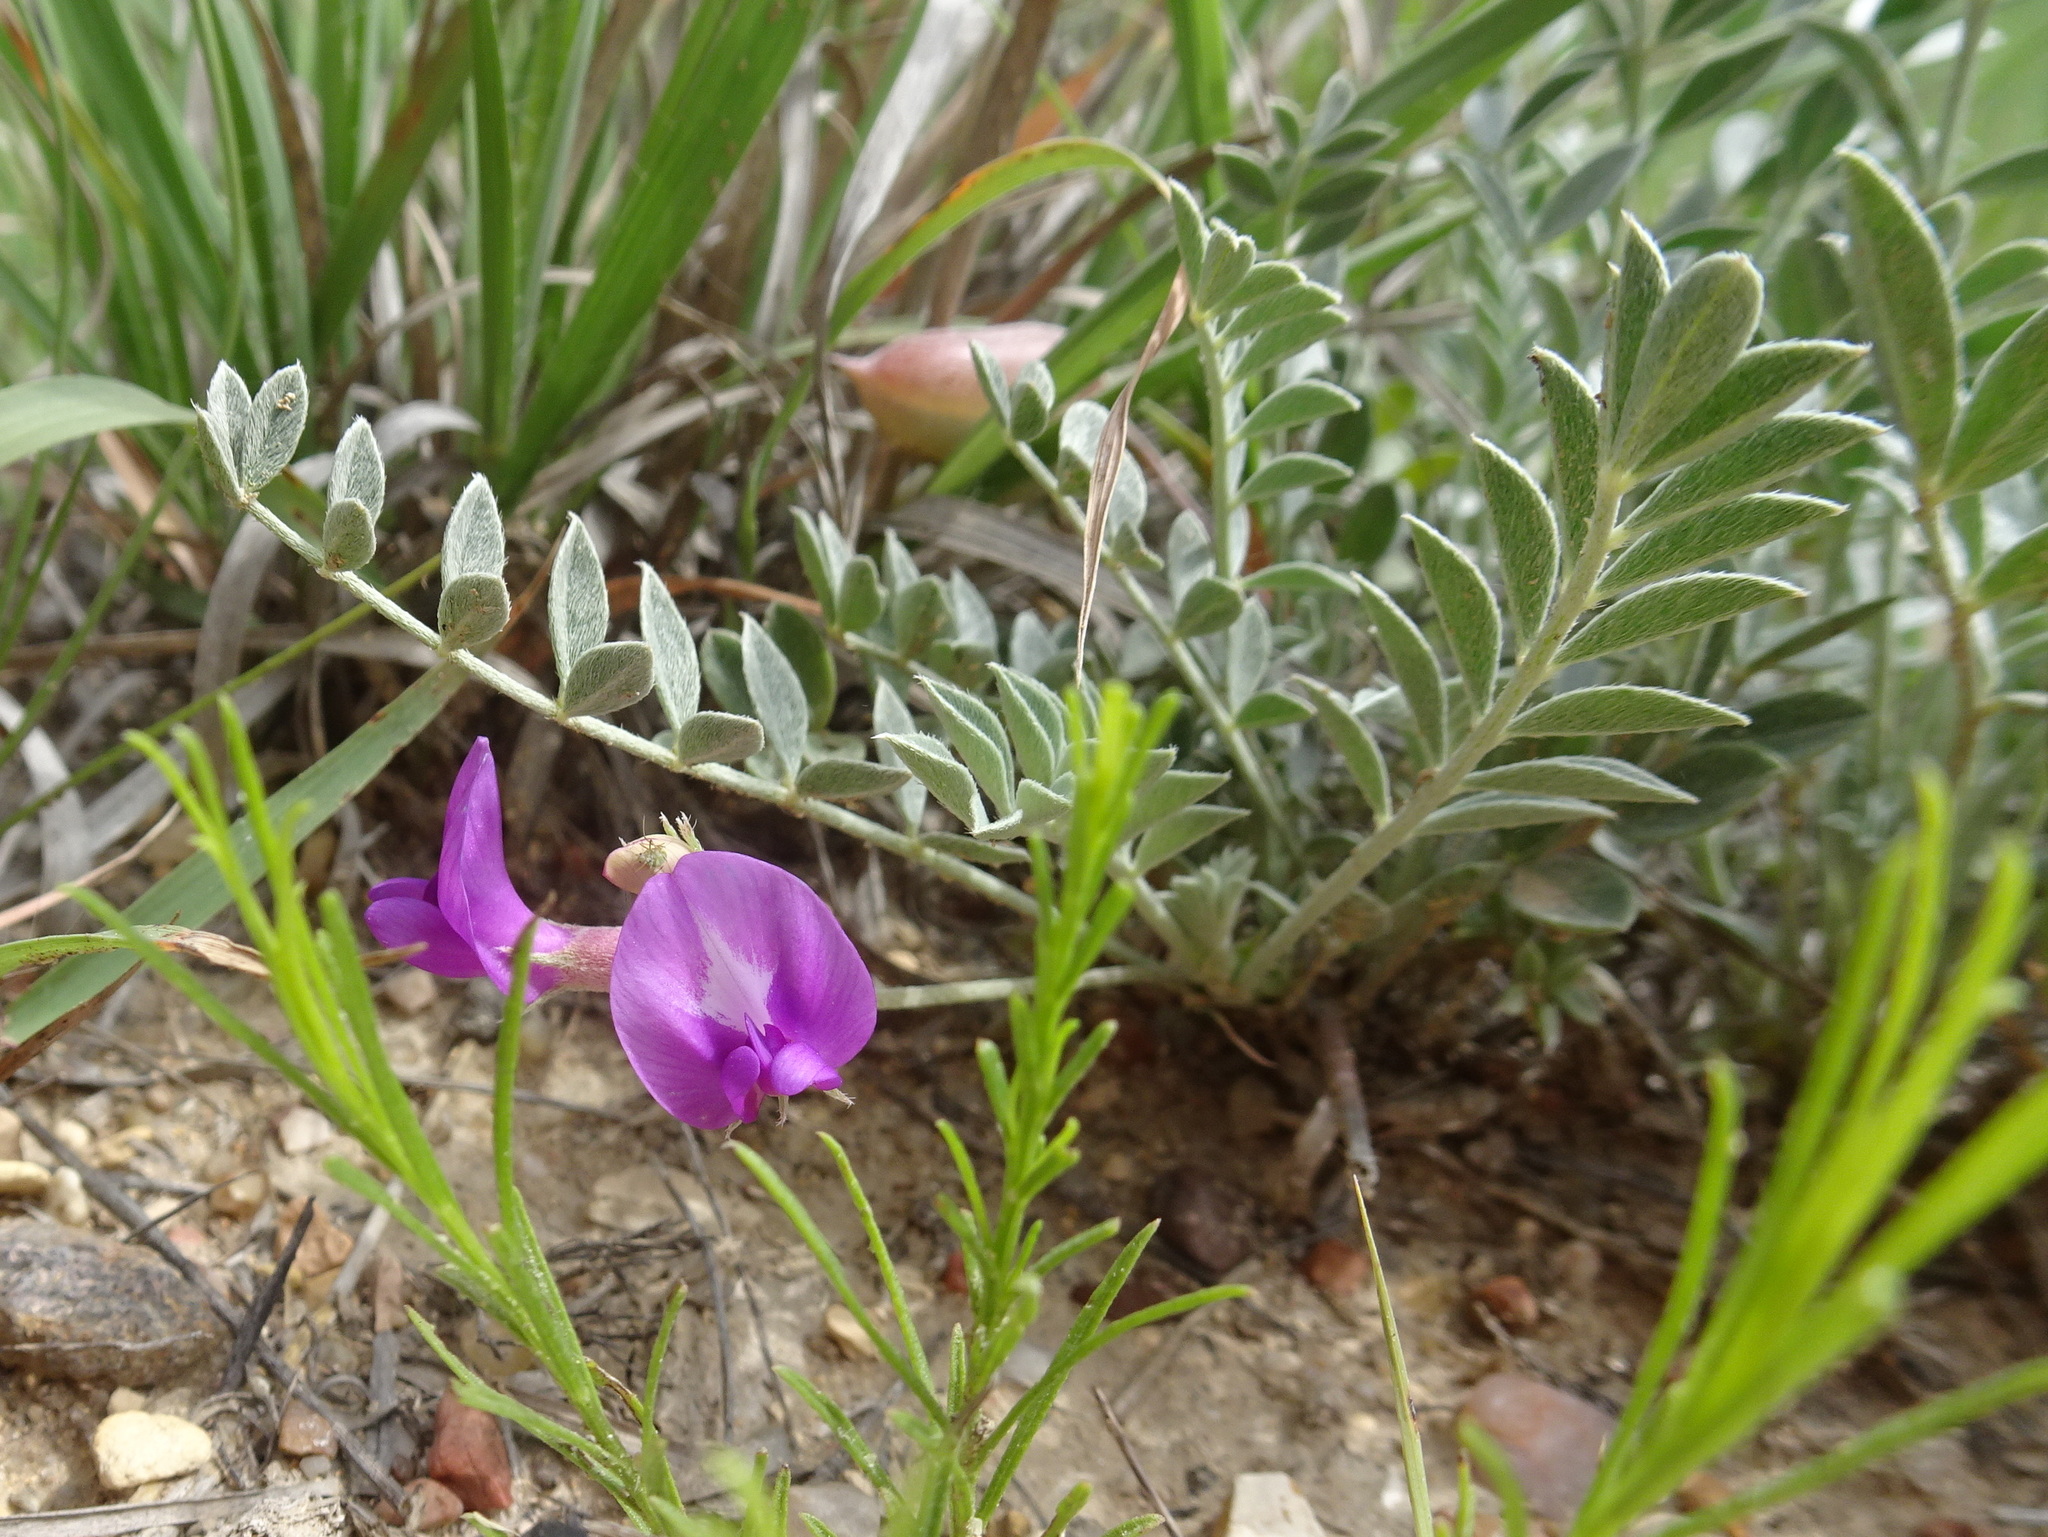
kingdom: Plantae
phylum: Tracheophyta
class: Magnoliopsida
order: Fabales
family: Fabaceae
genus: Astragalus
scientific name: Astragalus missouriensis
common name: Missouri milk-vetch
